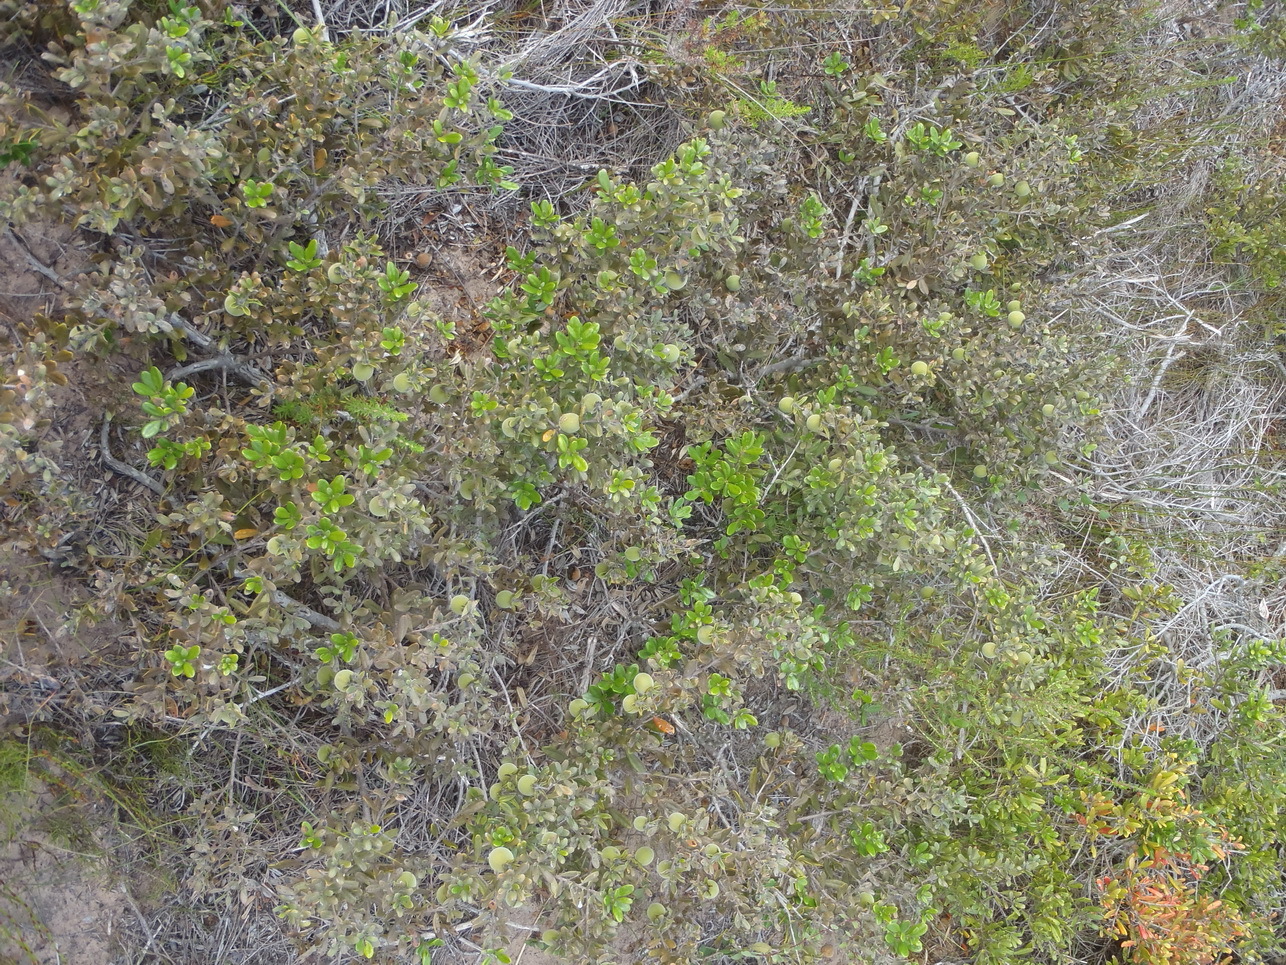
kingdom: Plantae
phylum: Tracheophyta
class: Magnoliopsida
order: Ericales
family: Ebenaceae
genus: Diospyros
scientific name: Diospyros dichrophylla
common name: Common star-apple
